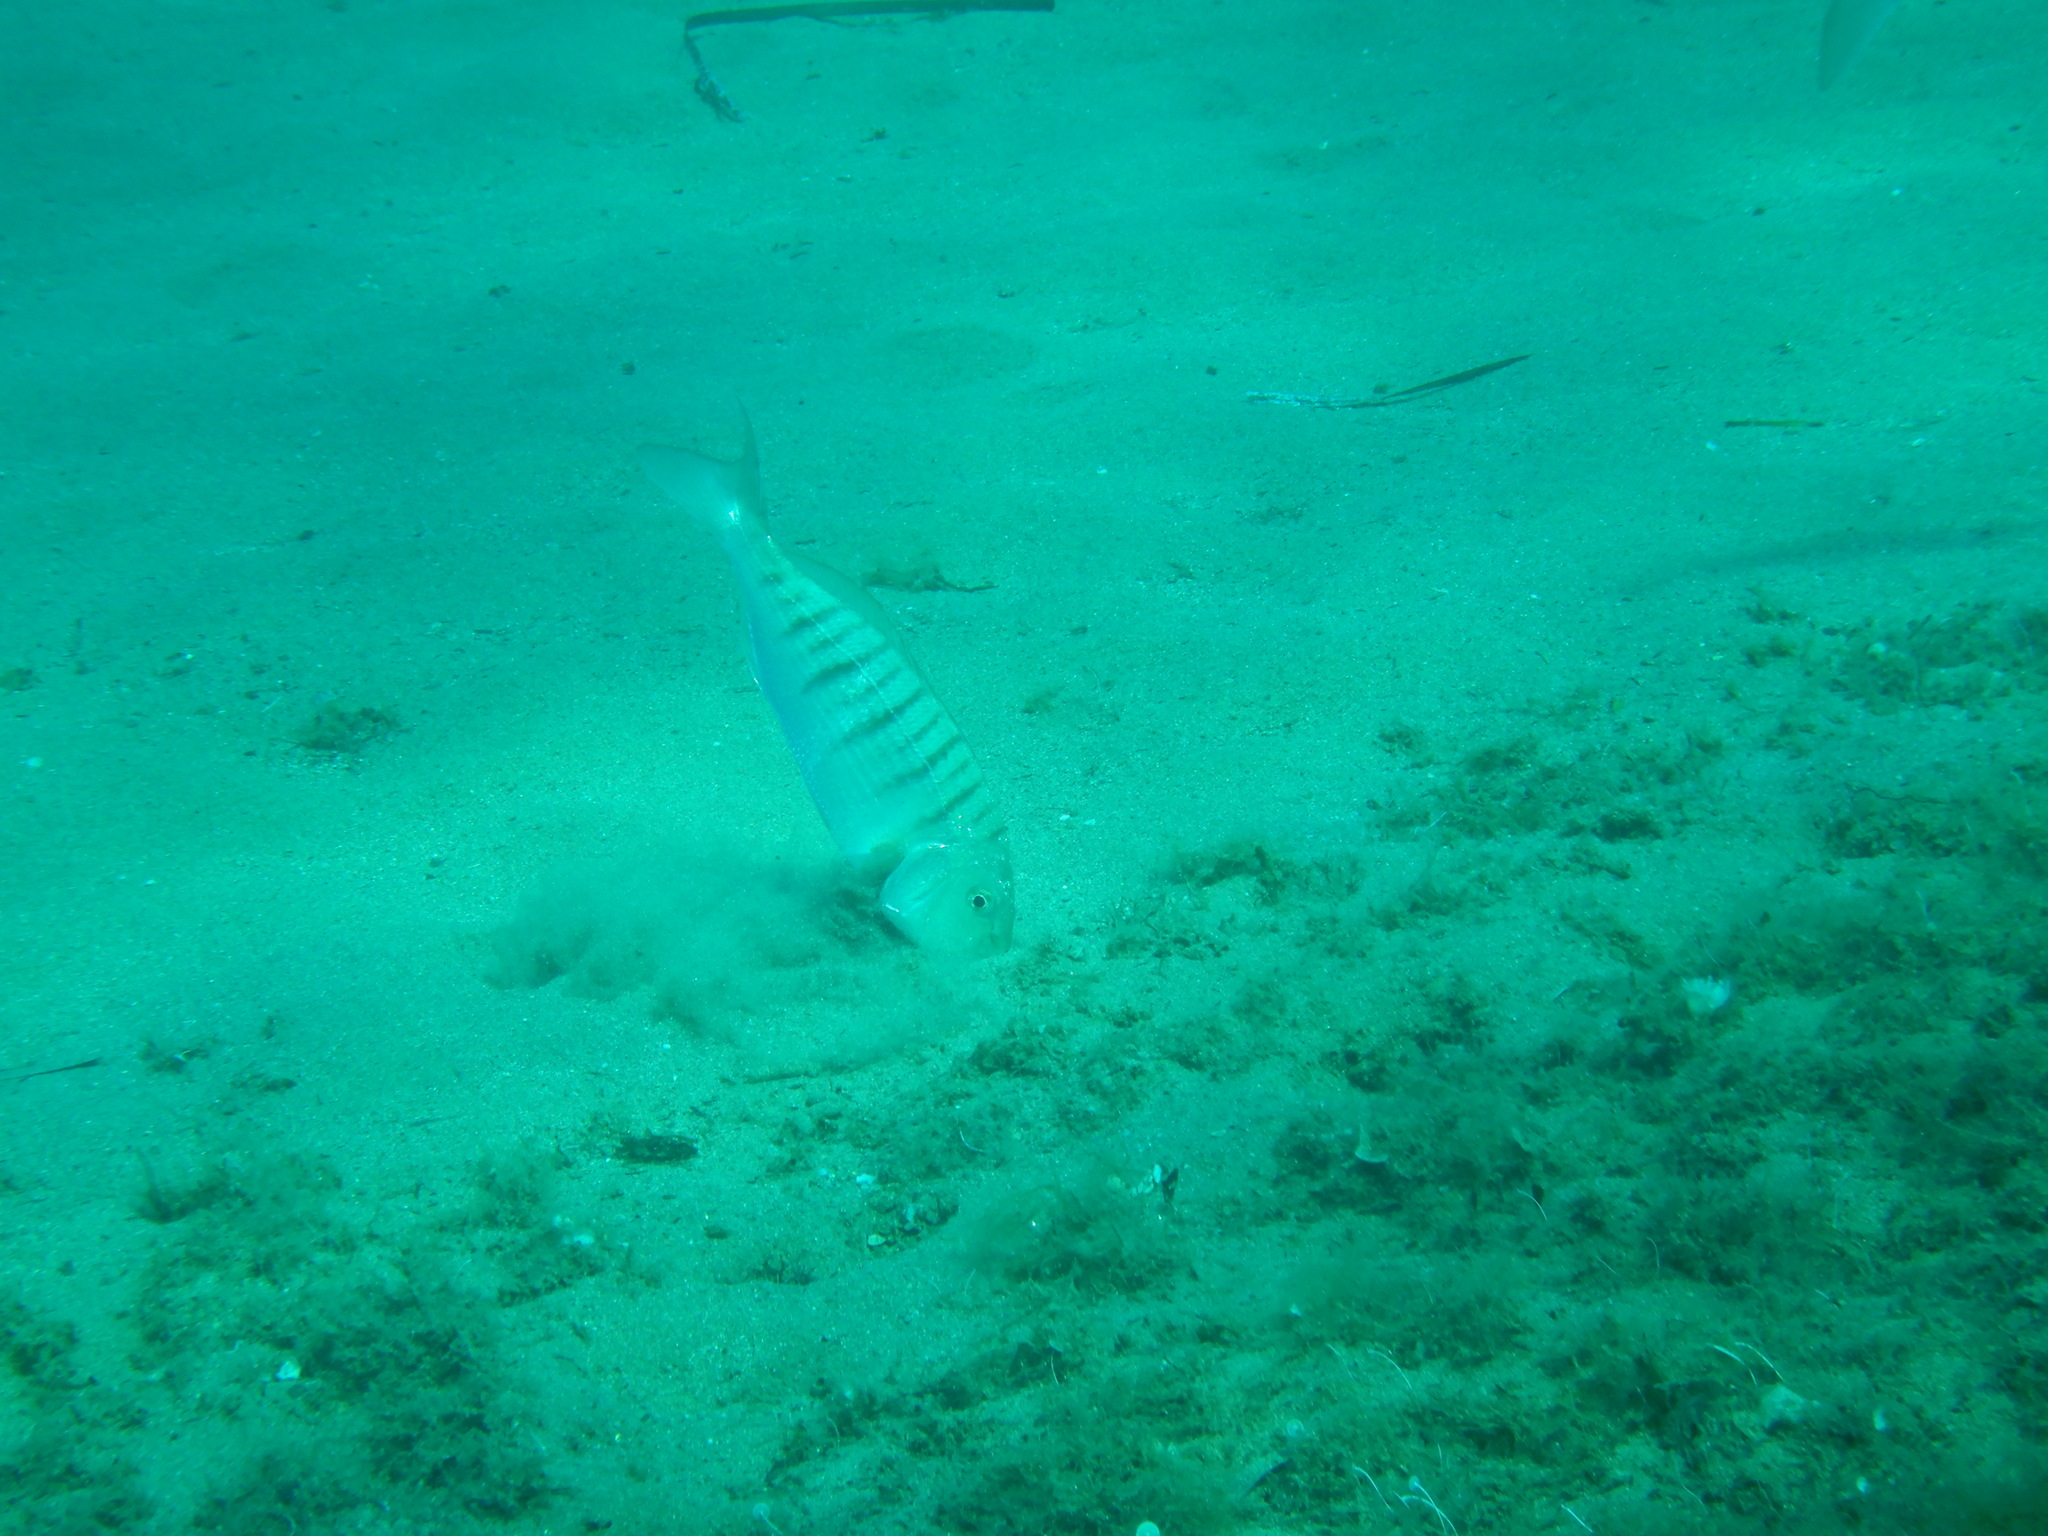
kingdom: Animalia
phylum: Chordata
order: Perciformes
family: Sparidae
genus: Lithognathus
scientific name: Lithognathus mormyrus
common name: Sand steenbras
